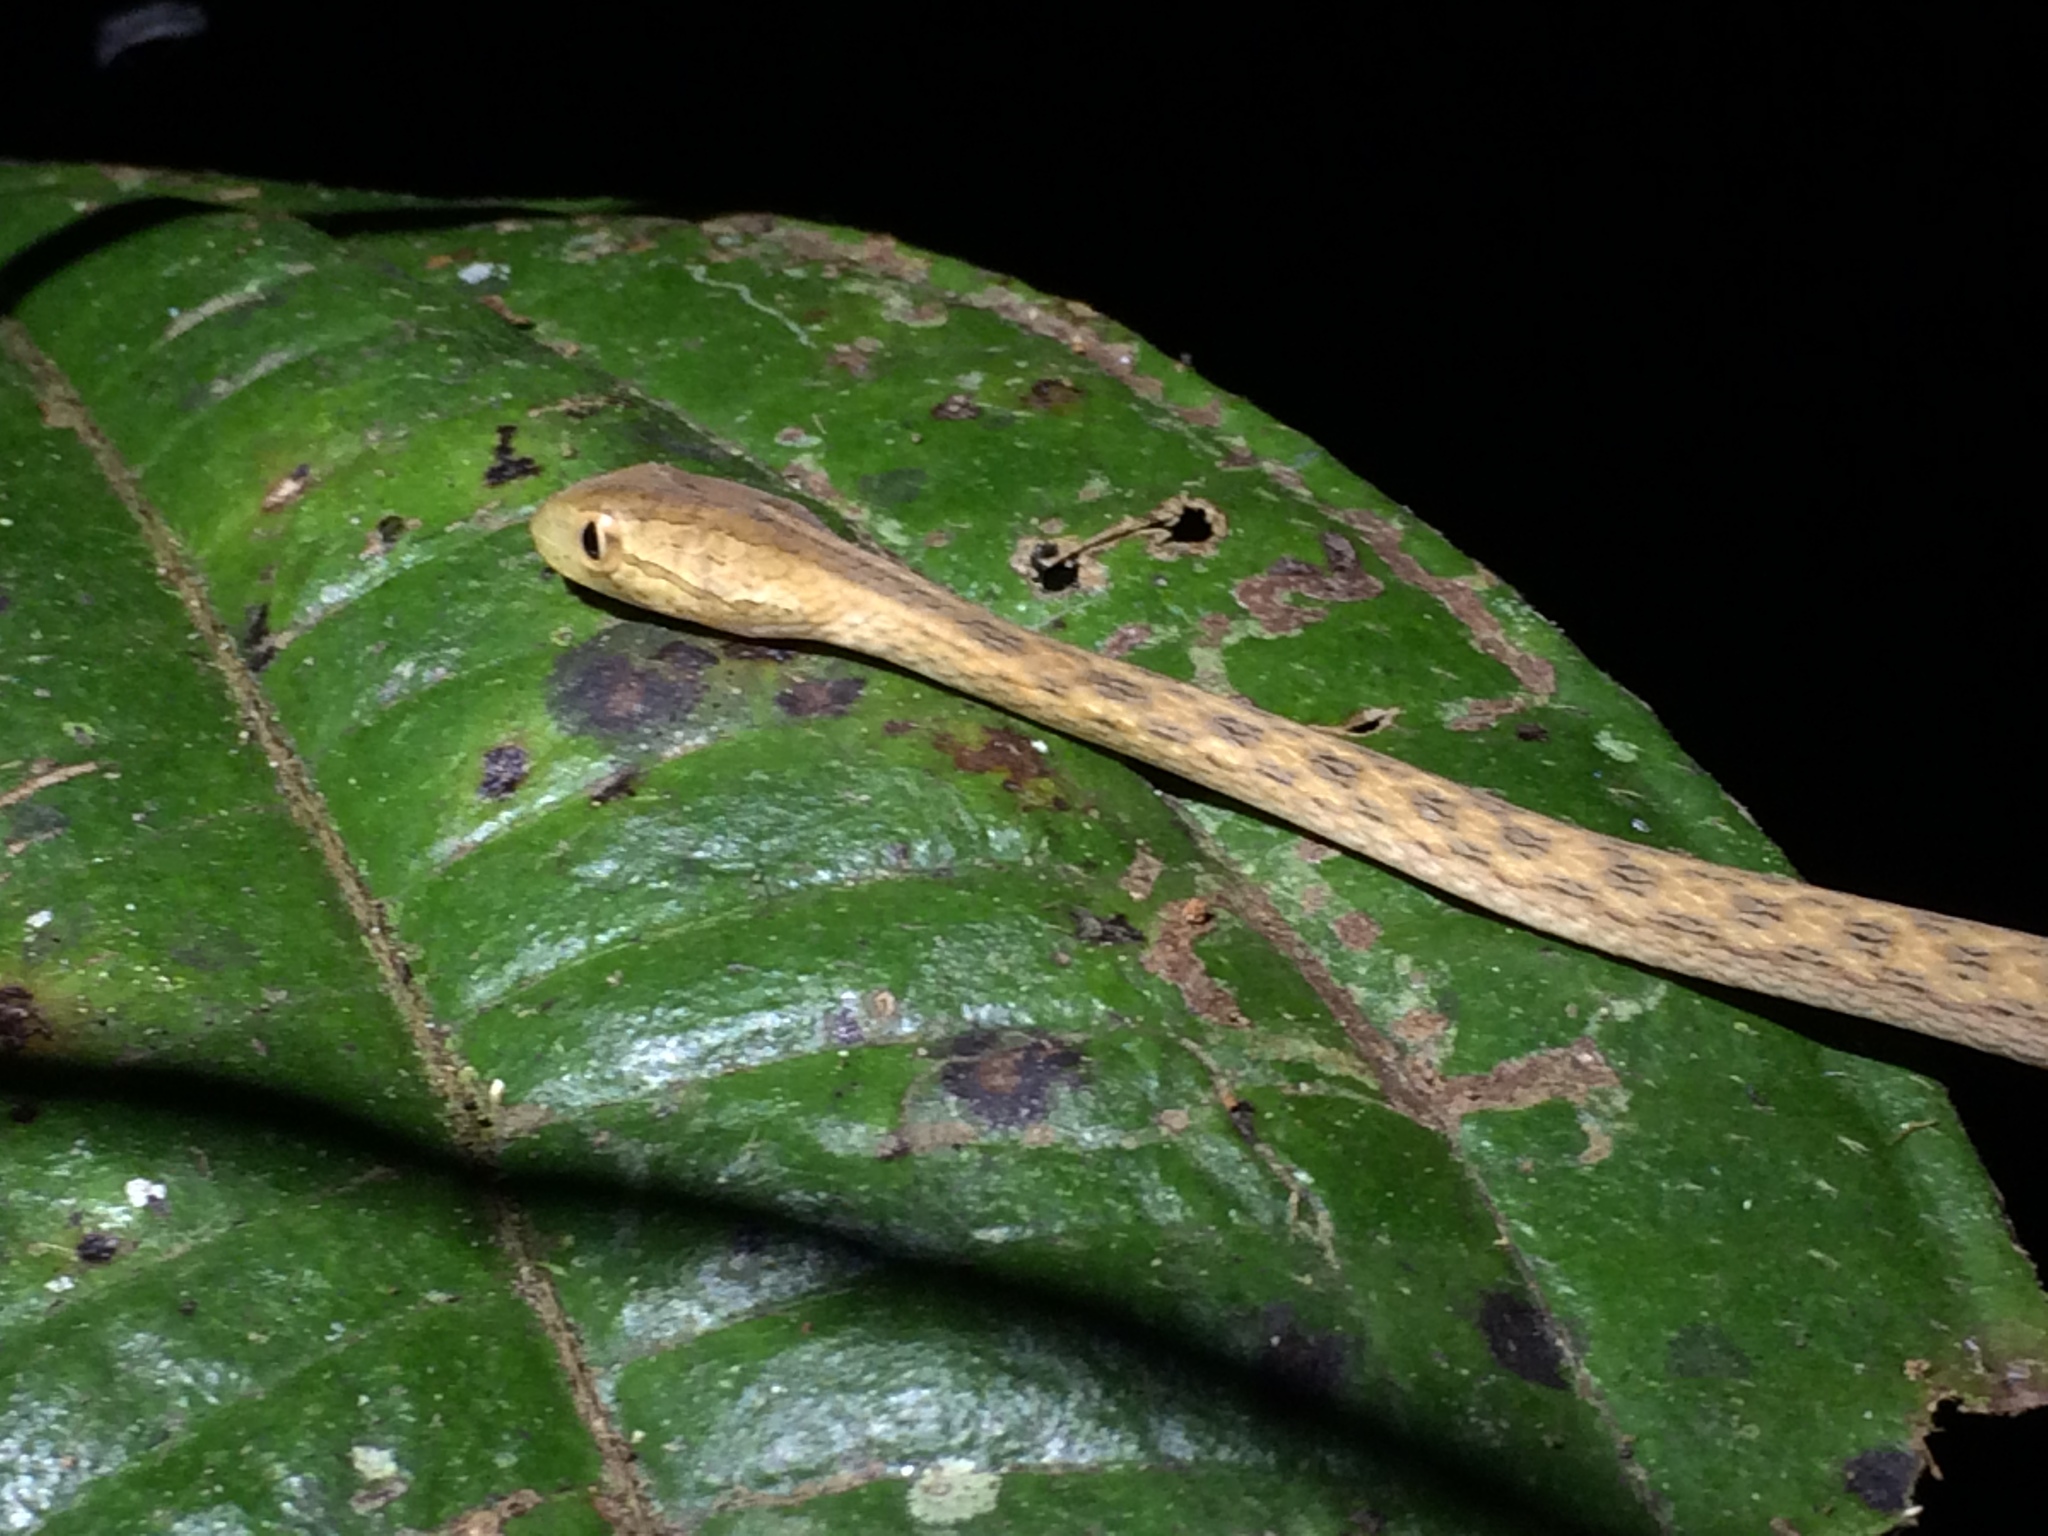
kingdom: Animalia
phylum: Chordata
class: Squamata
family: Colubridae
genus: Thamnodynastes
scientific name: Thamnodynastes pallidus
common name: Amazon coastal house snake
